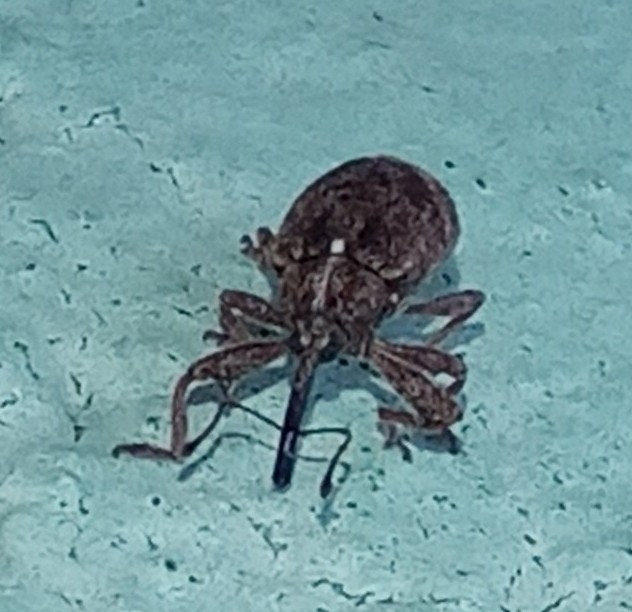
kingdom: Animalia
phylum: Arthropoda
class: Insecta
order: Coleoptera
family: Curculionidae
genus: Anthonomus
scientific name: Anthonomus pomorum
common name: Apple-blossom weevil
